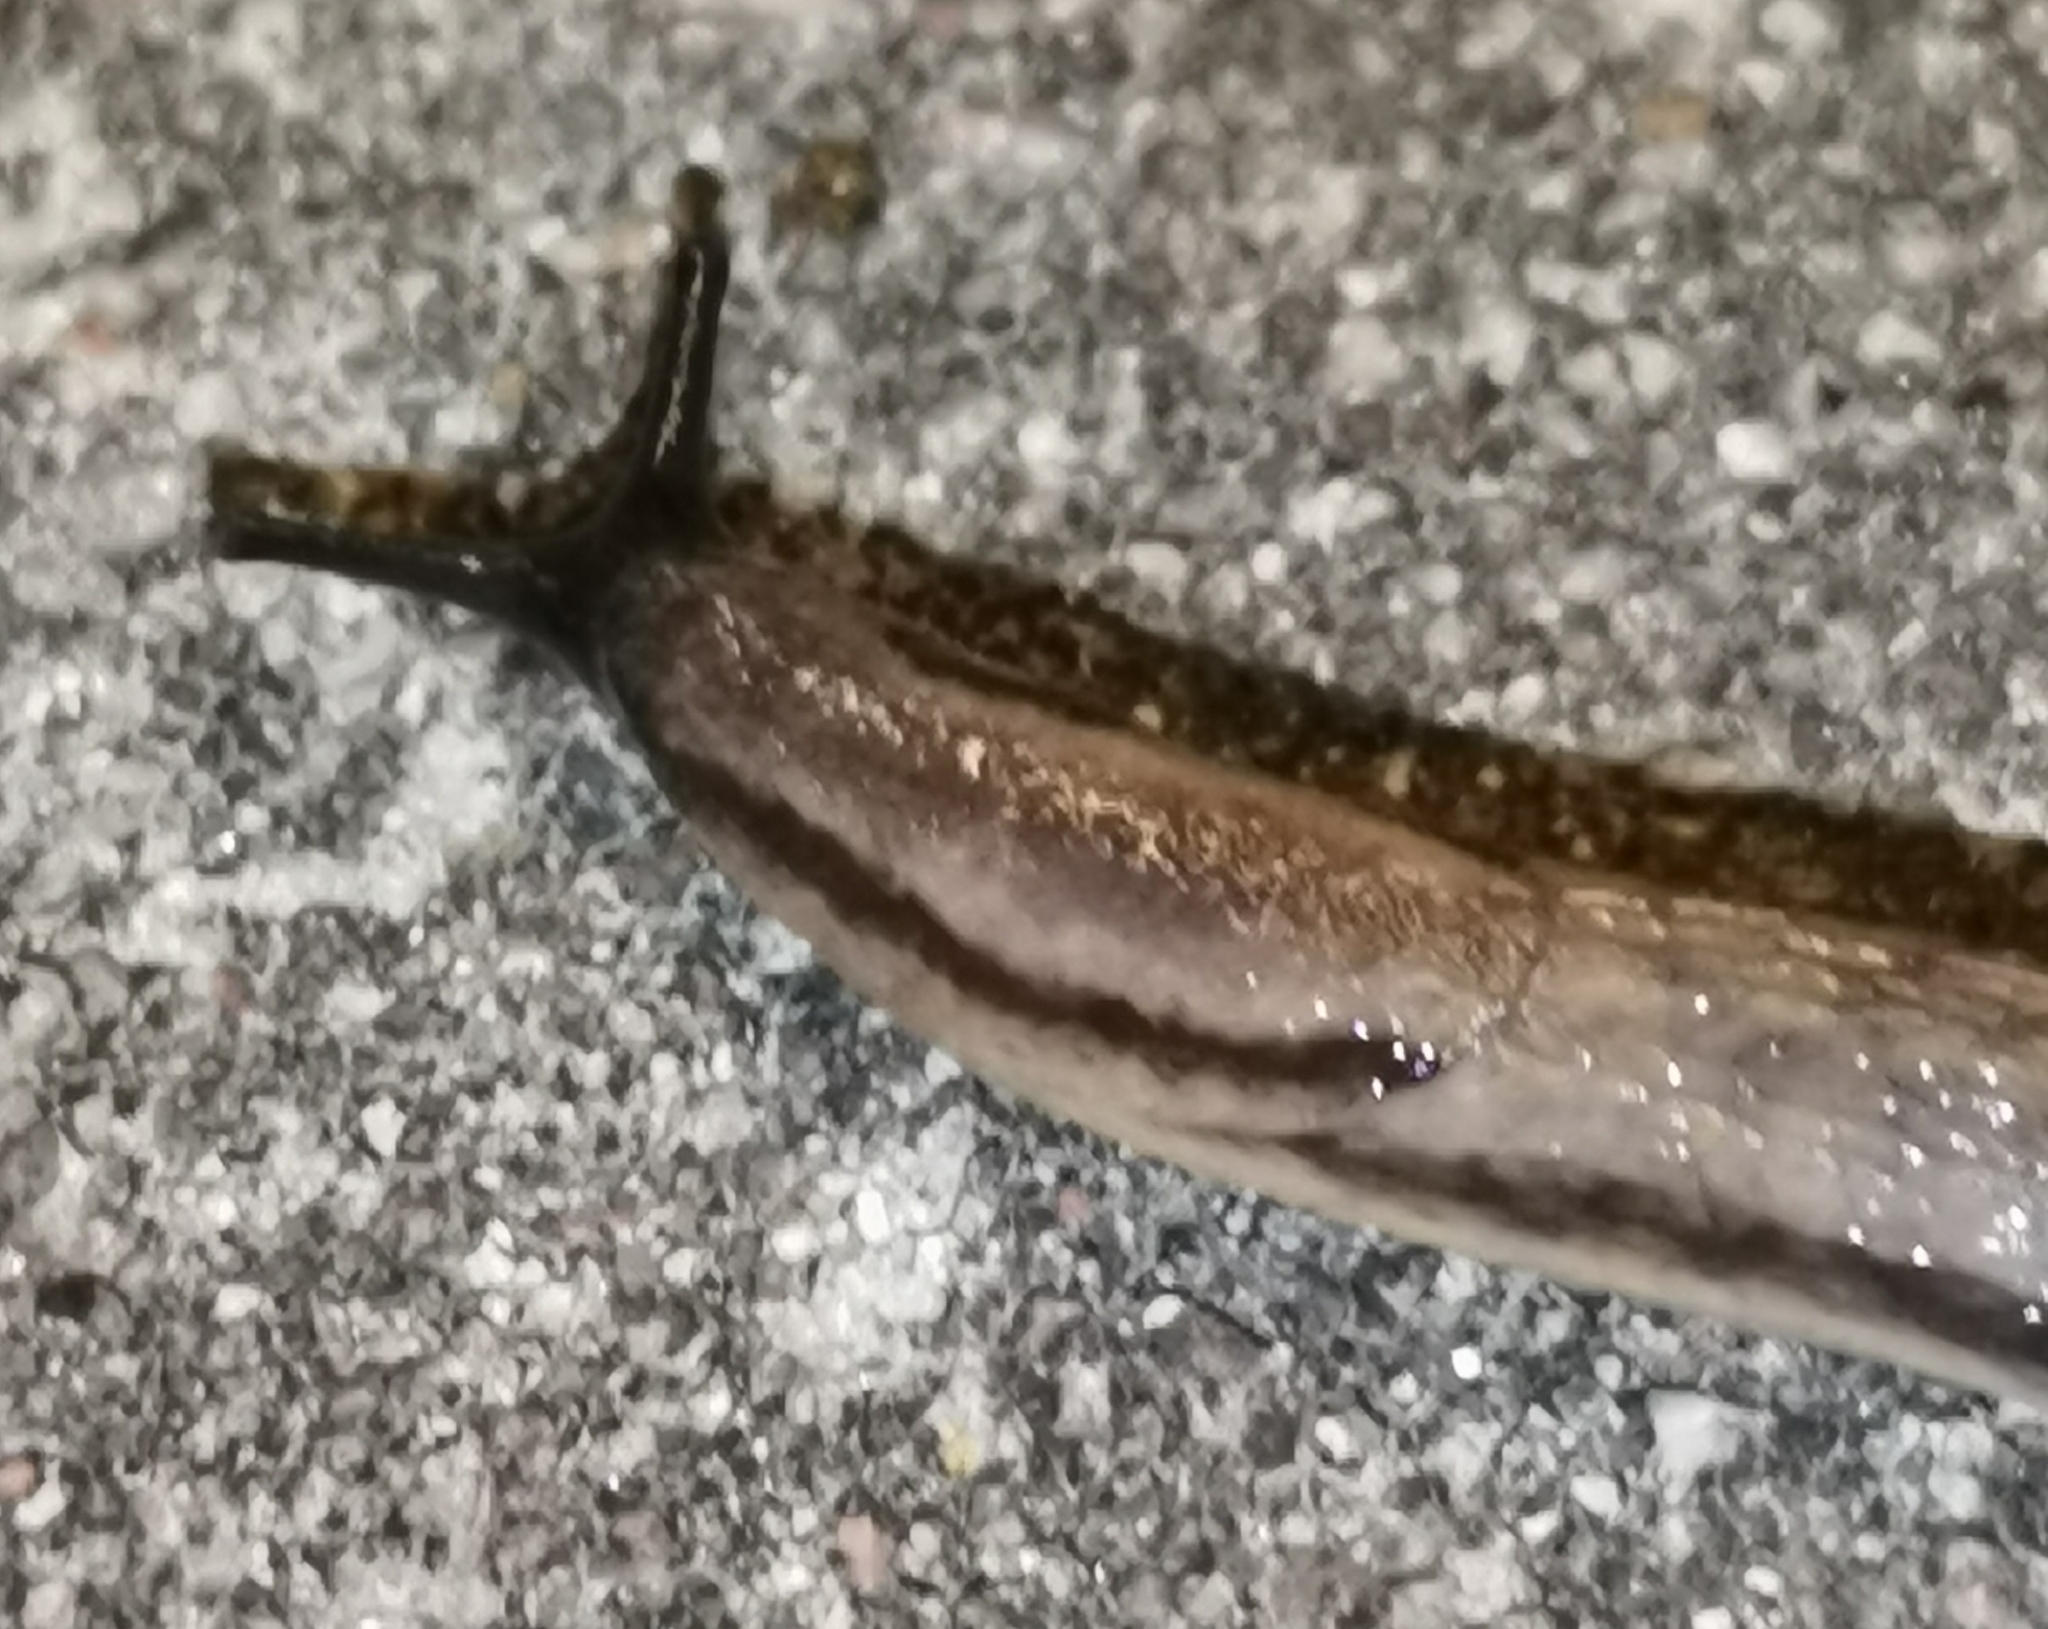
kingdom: Animalia
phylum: Mollusca
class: Gastropoda
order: Stylommatophora
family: Arionidae
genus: Arion
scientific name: Arion fuscus
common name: Northern dusky slug
